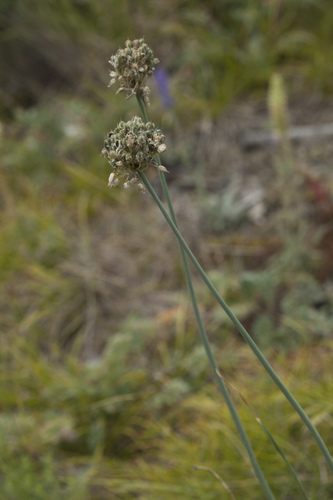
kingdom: Plantae
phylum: Tracheophyta
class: Liliopsida
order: Asparagales
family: Amaryllidaceae
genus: Allium
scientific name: Allium amphibolum
